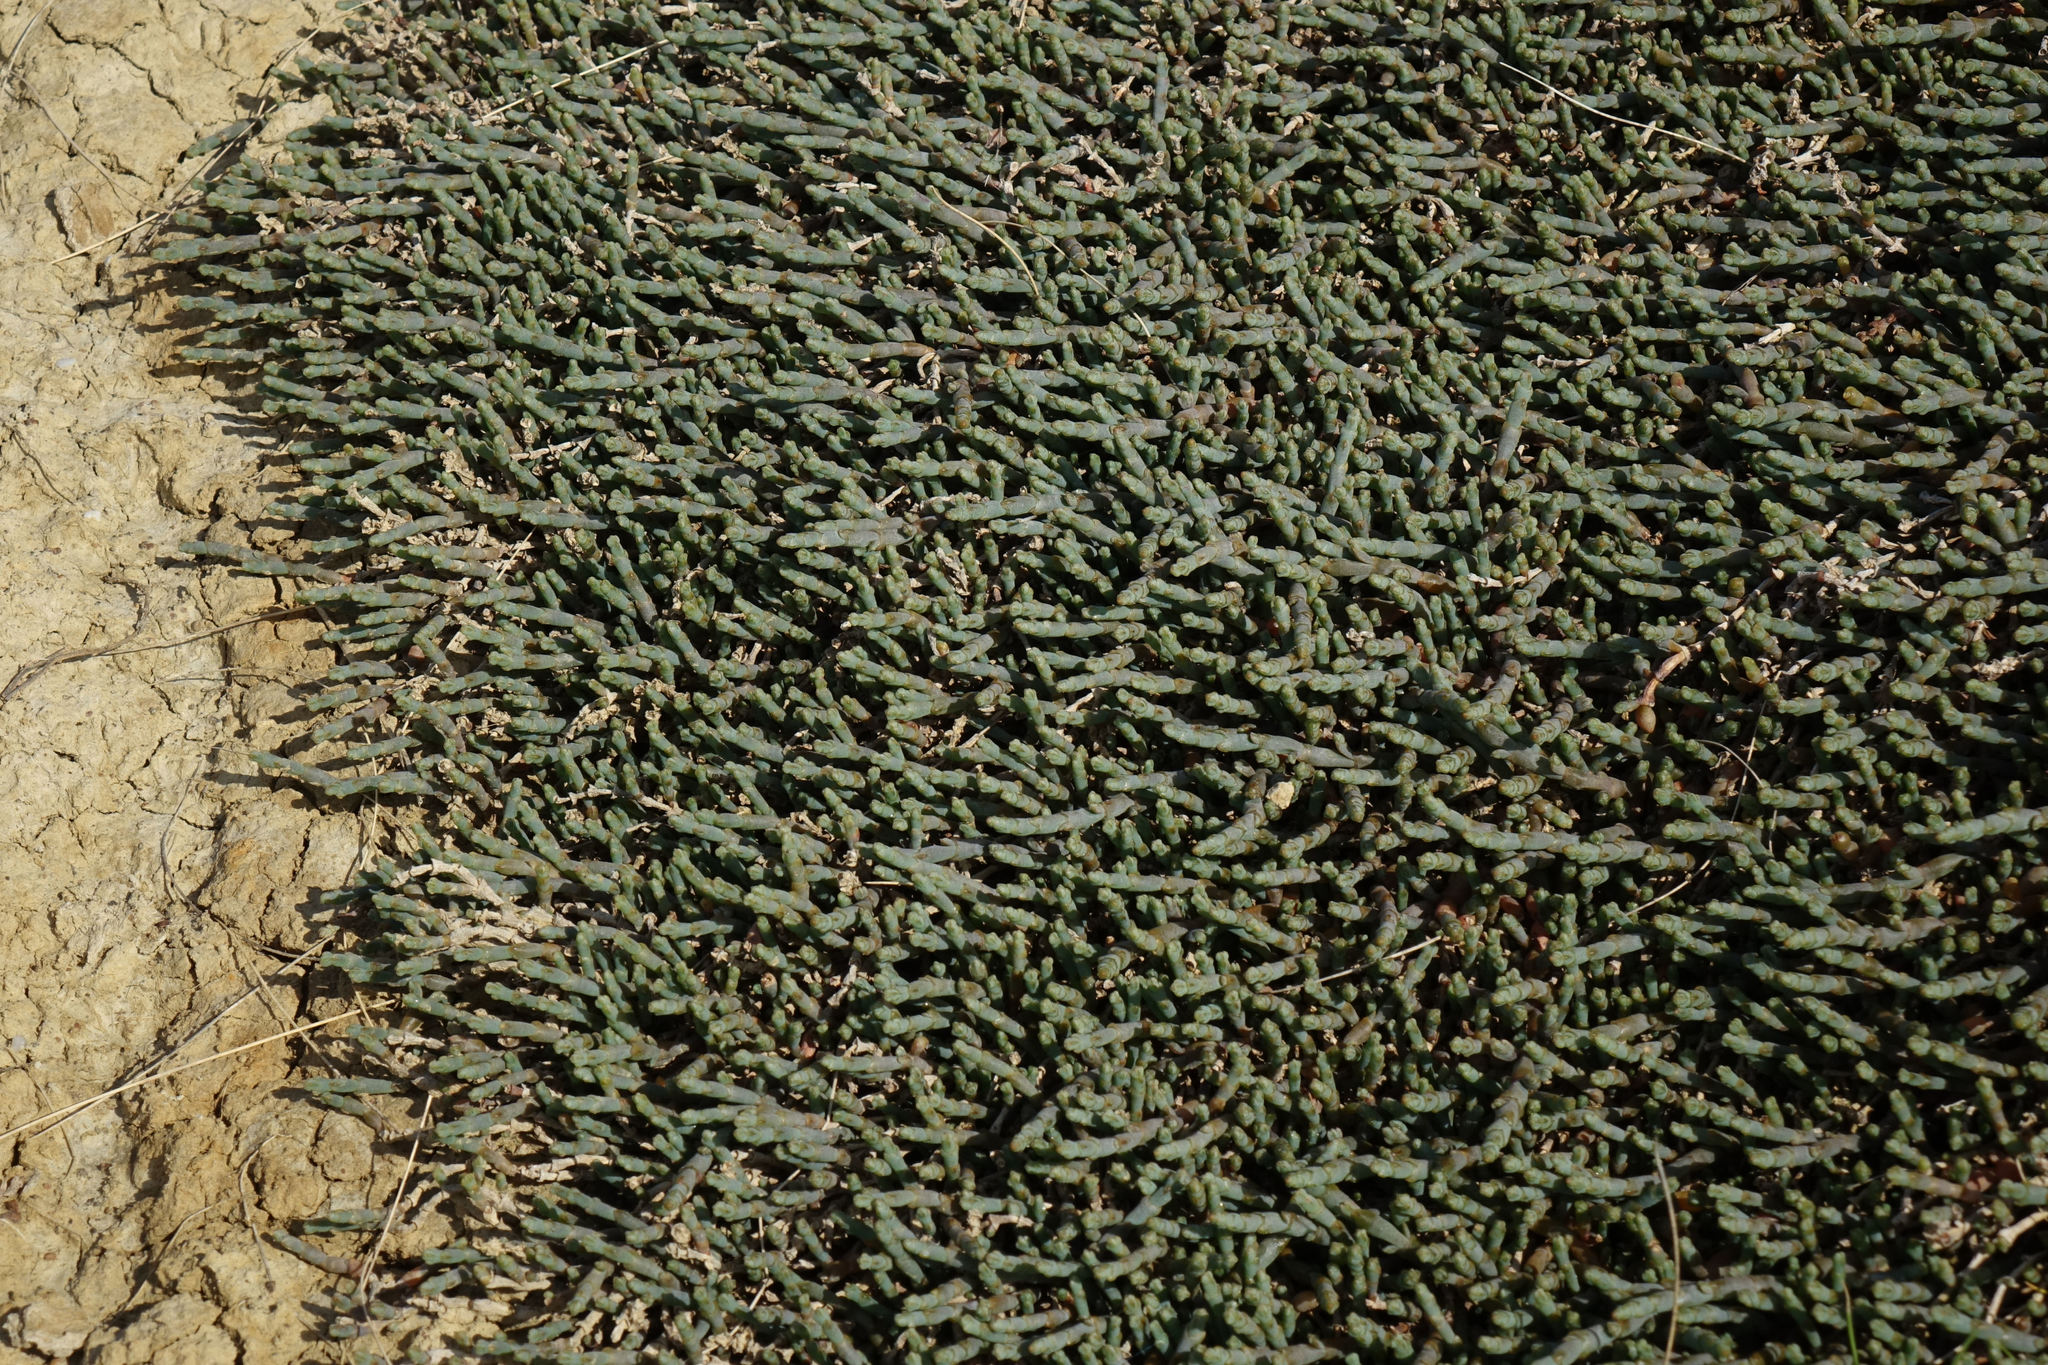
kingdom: Plantae
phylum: Tracheophyta
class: Magnoliopsida
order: Caryophyllales
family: Amaranthaceae
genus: Salicornia
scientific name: Salicornia quinqueflora
